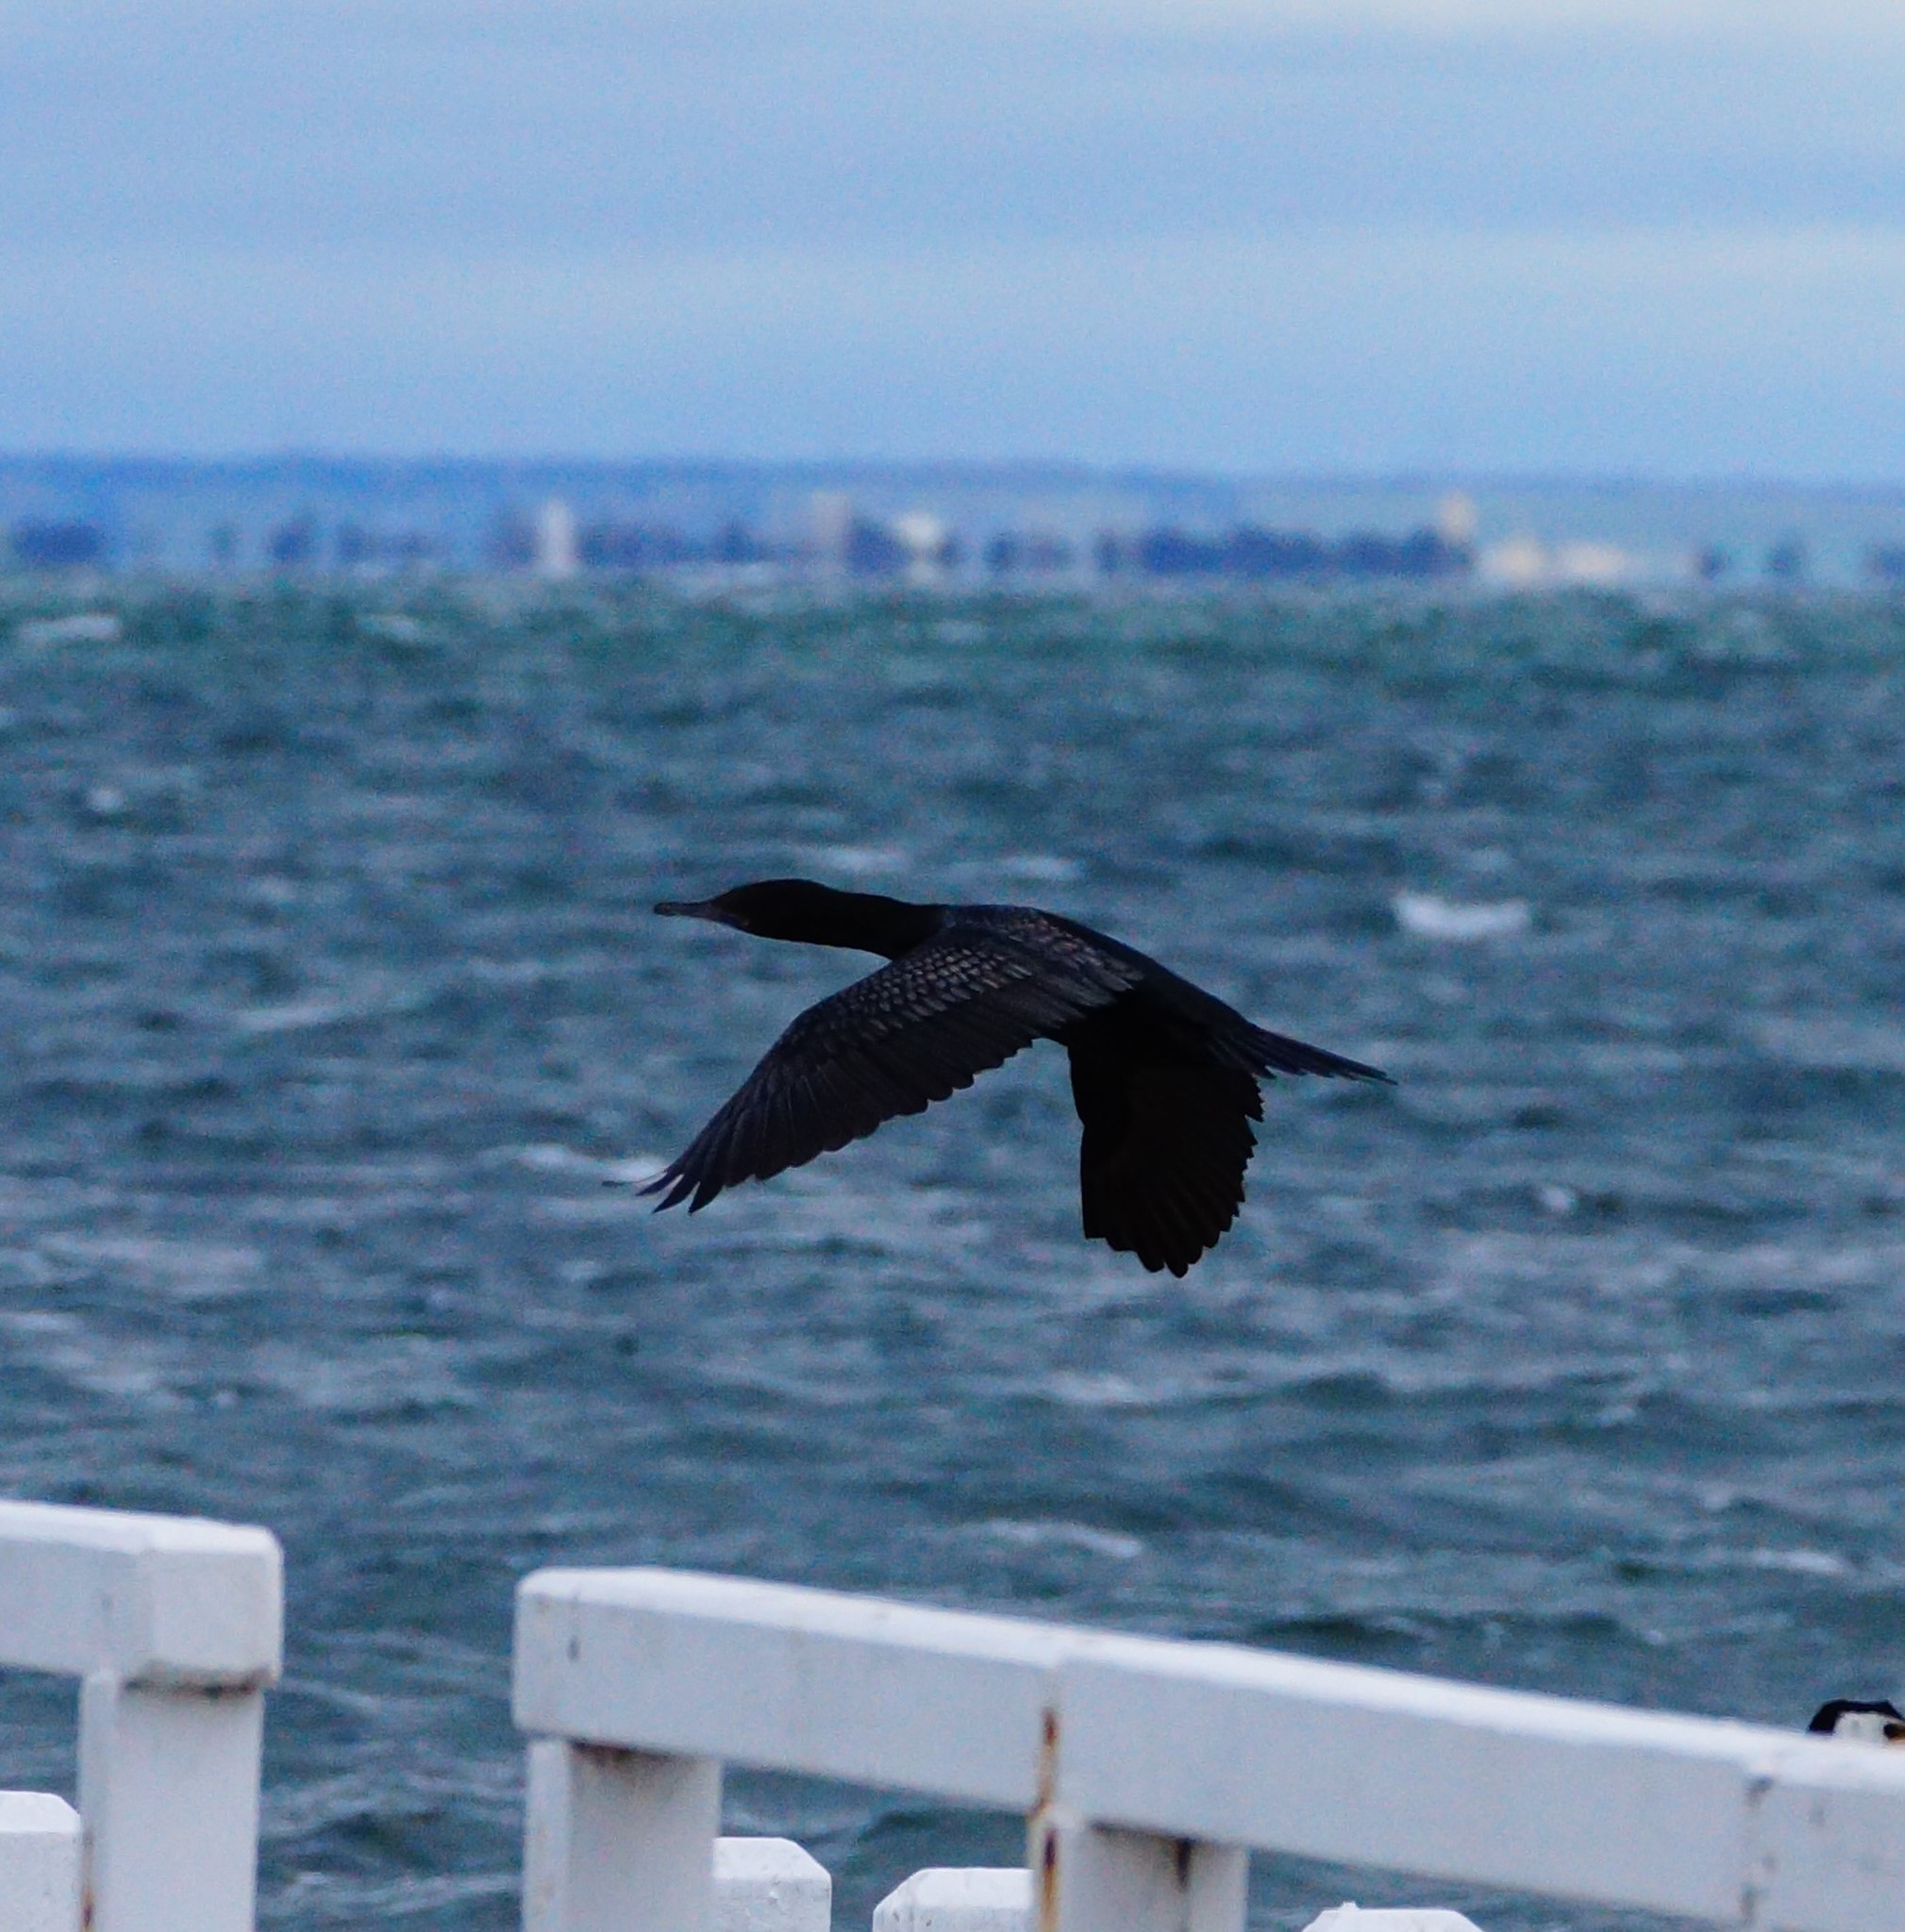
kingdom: Animalia
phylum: Chordata
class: Aves
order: Suliformes
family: Phalacrocoracidae
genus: Phalacrocorax
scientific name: Phalacrocorax sulcirostris
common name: Little black cormorant
